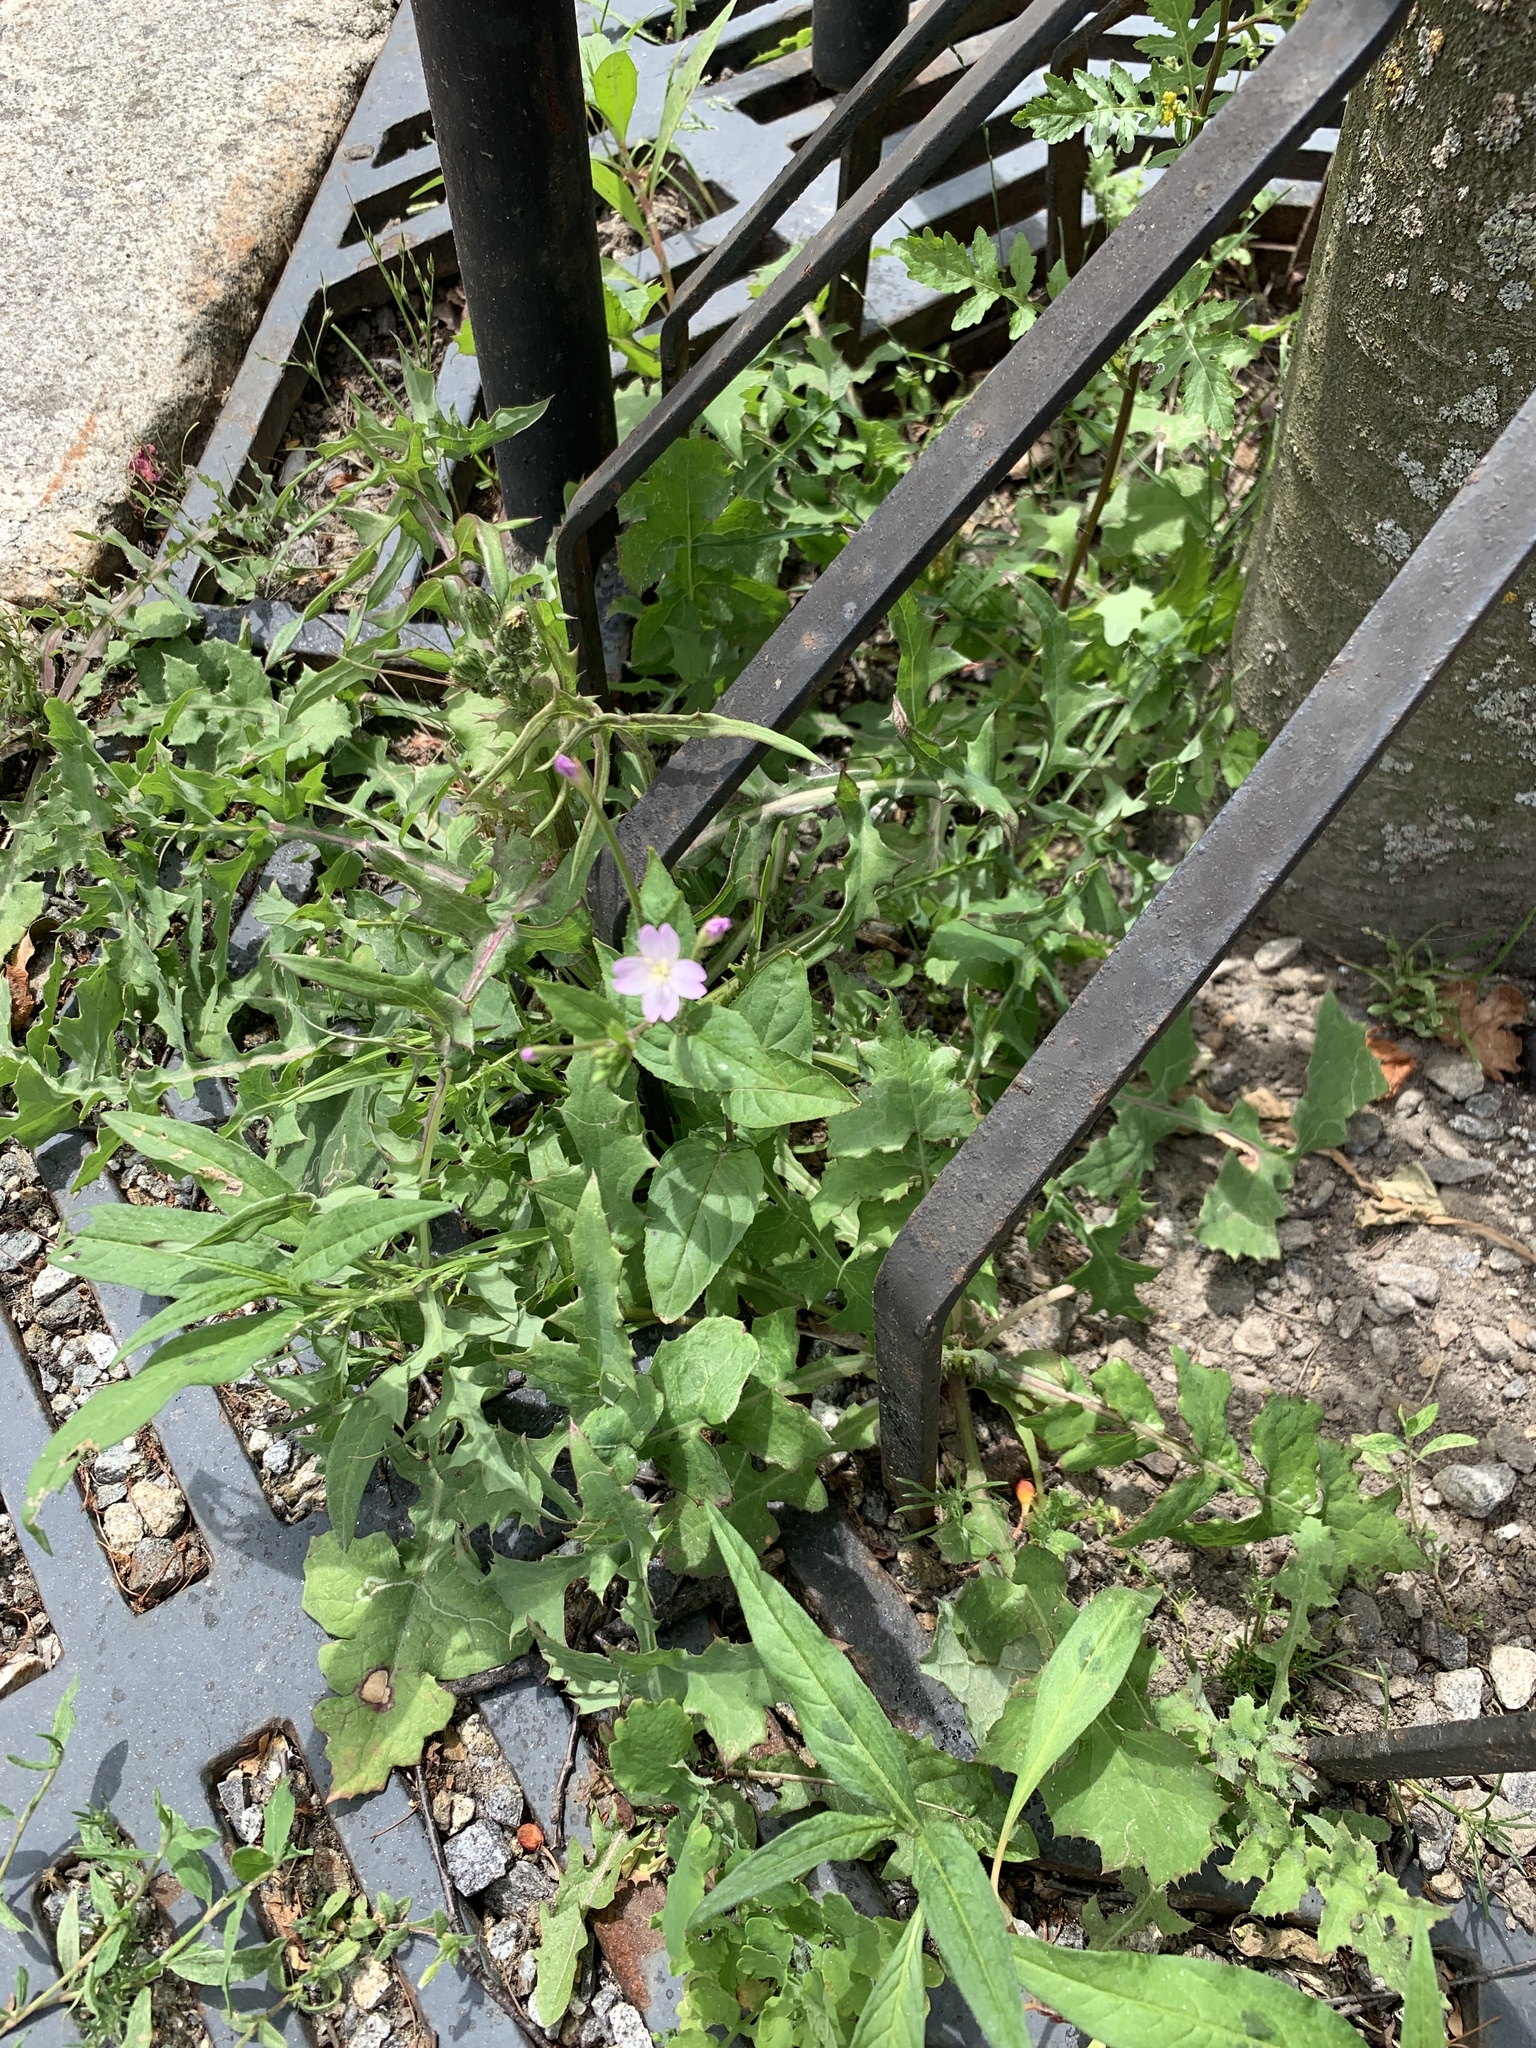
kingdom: Plantae
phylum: Tracheophyta
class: Magnoliopsida
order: Myrtales
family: Onagraceae
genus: Epilobium
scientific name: Epilobium montanum
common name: Broad-leaved willowherb
